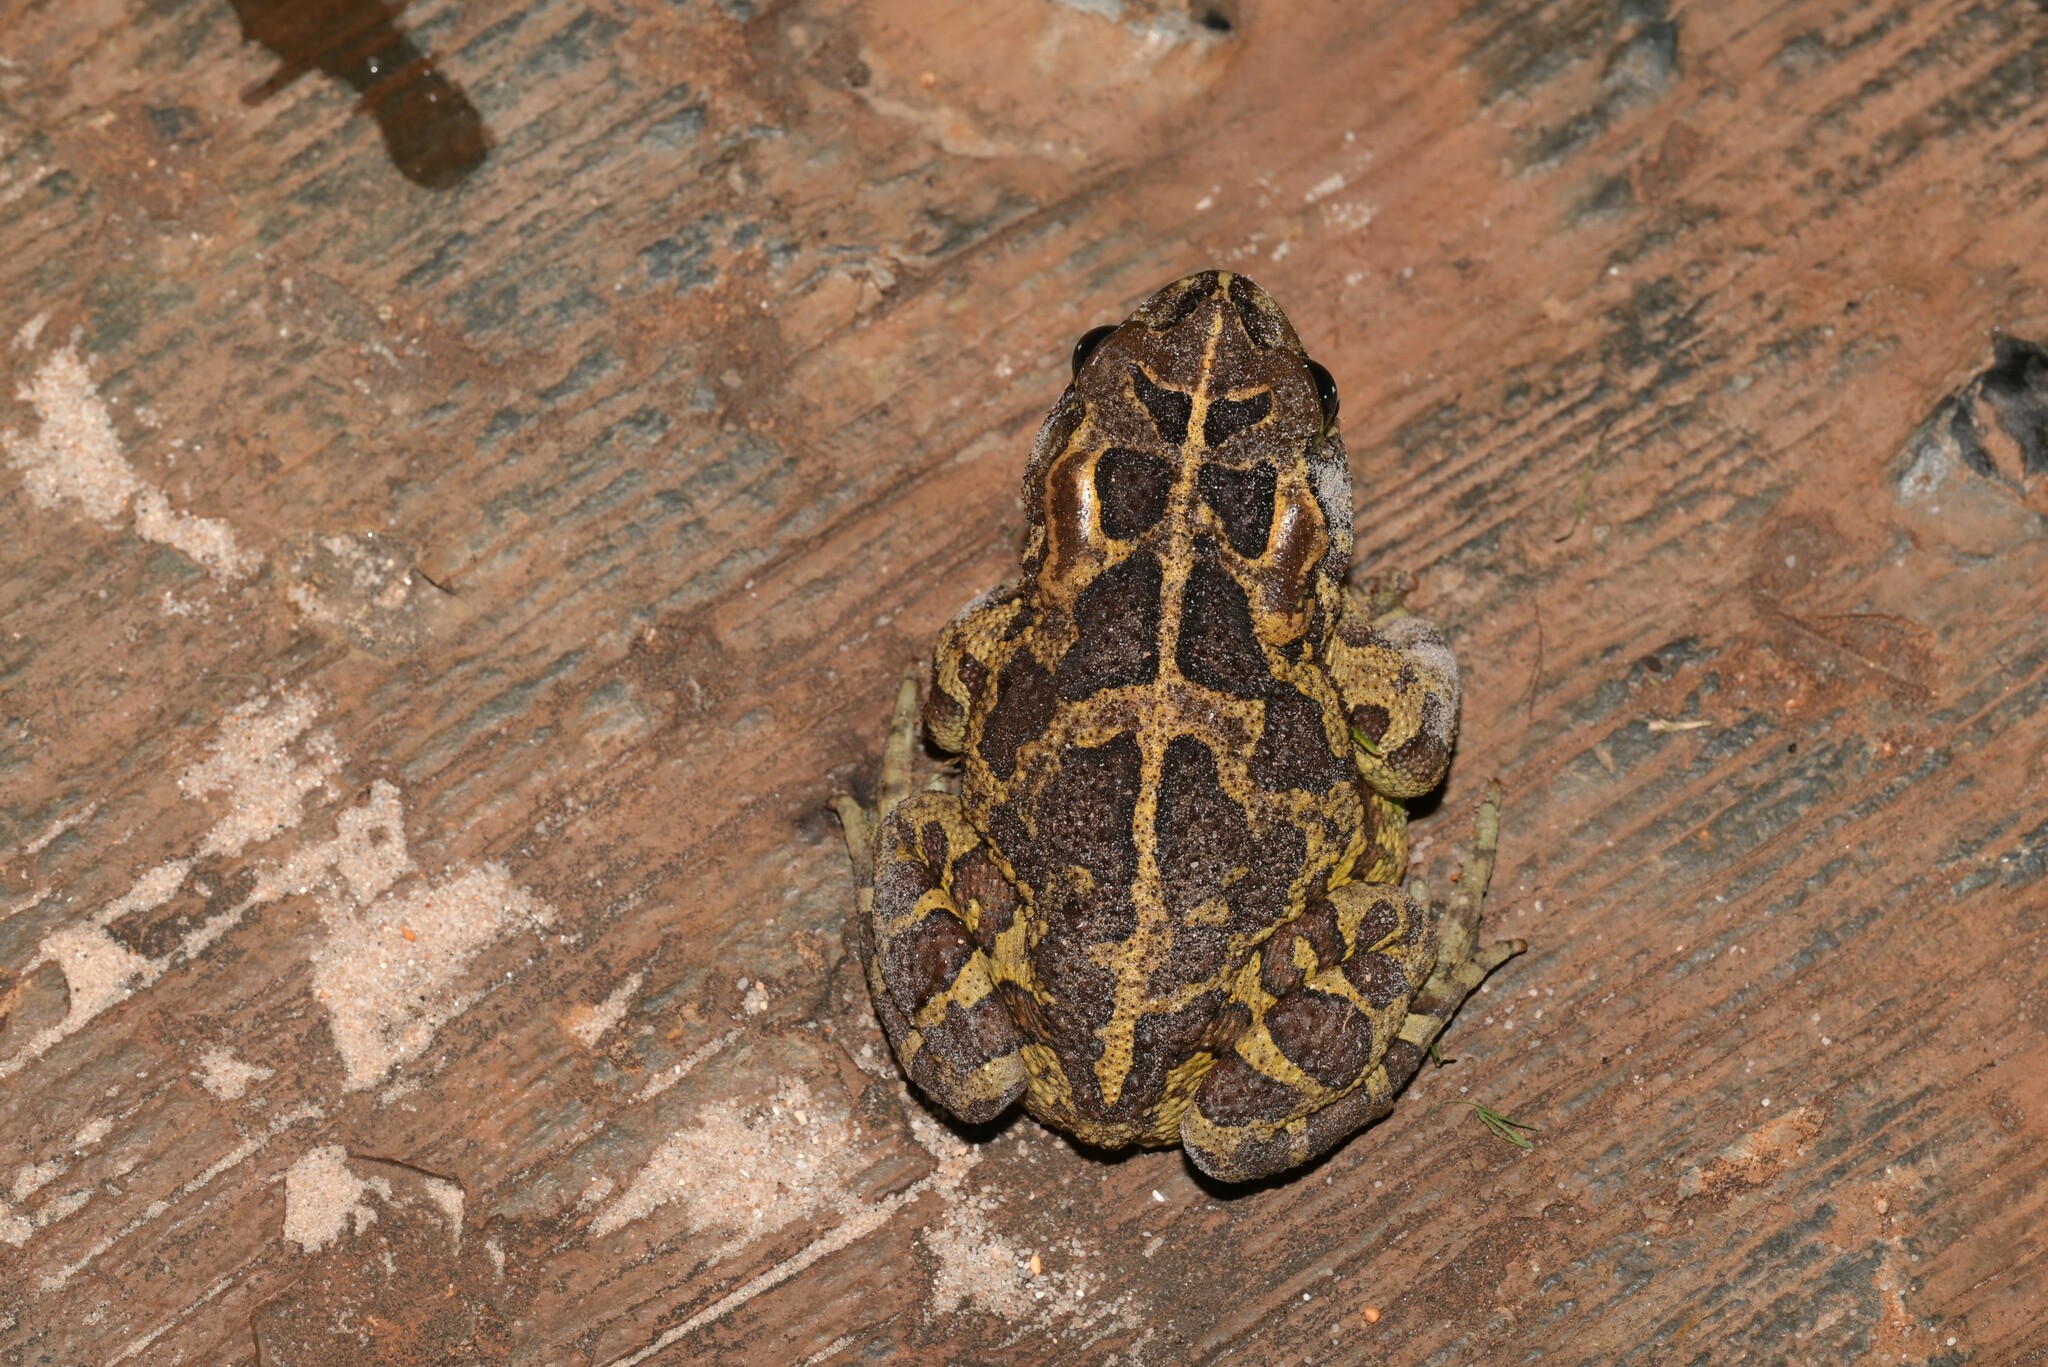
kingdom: Animalia
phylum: Chordata
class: Amphibia
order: Anura
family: Bufonidae
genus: Sclerophrys
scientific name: Sclerophrys pantherina
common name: Panther toad
